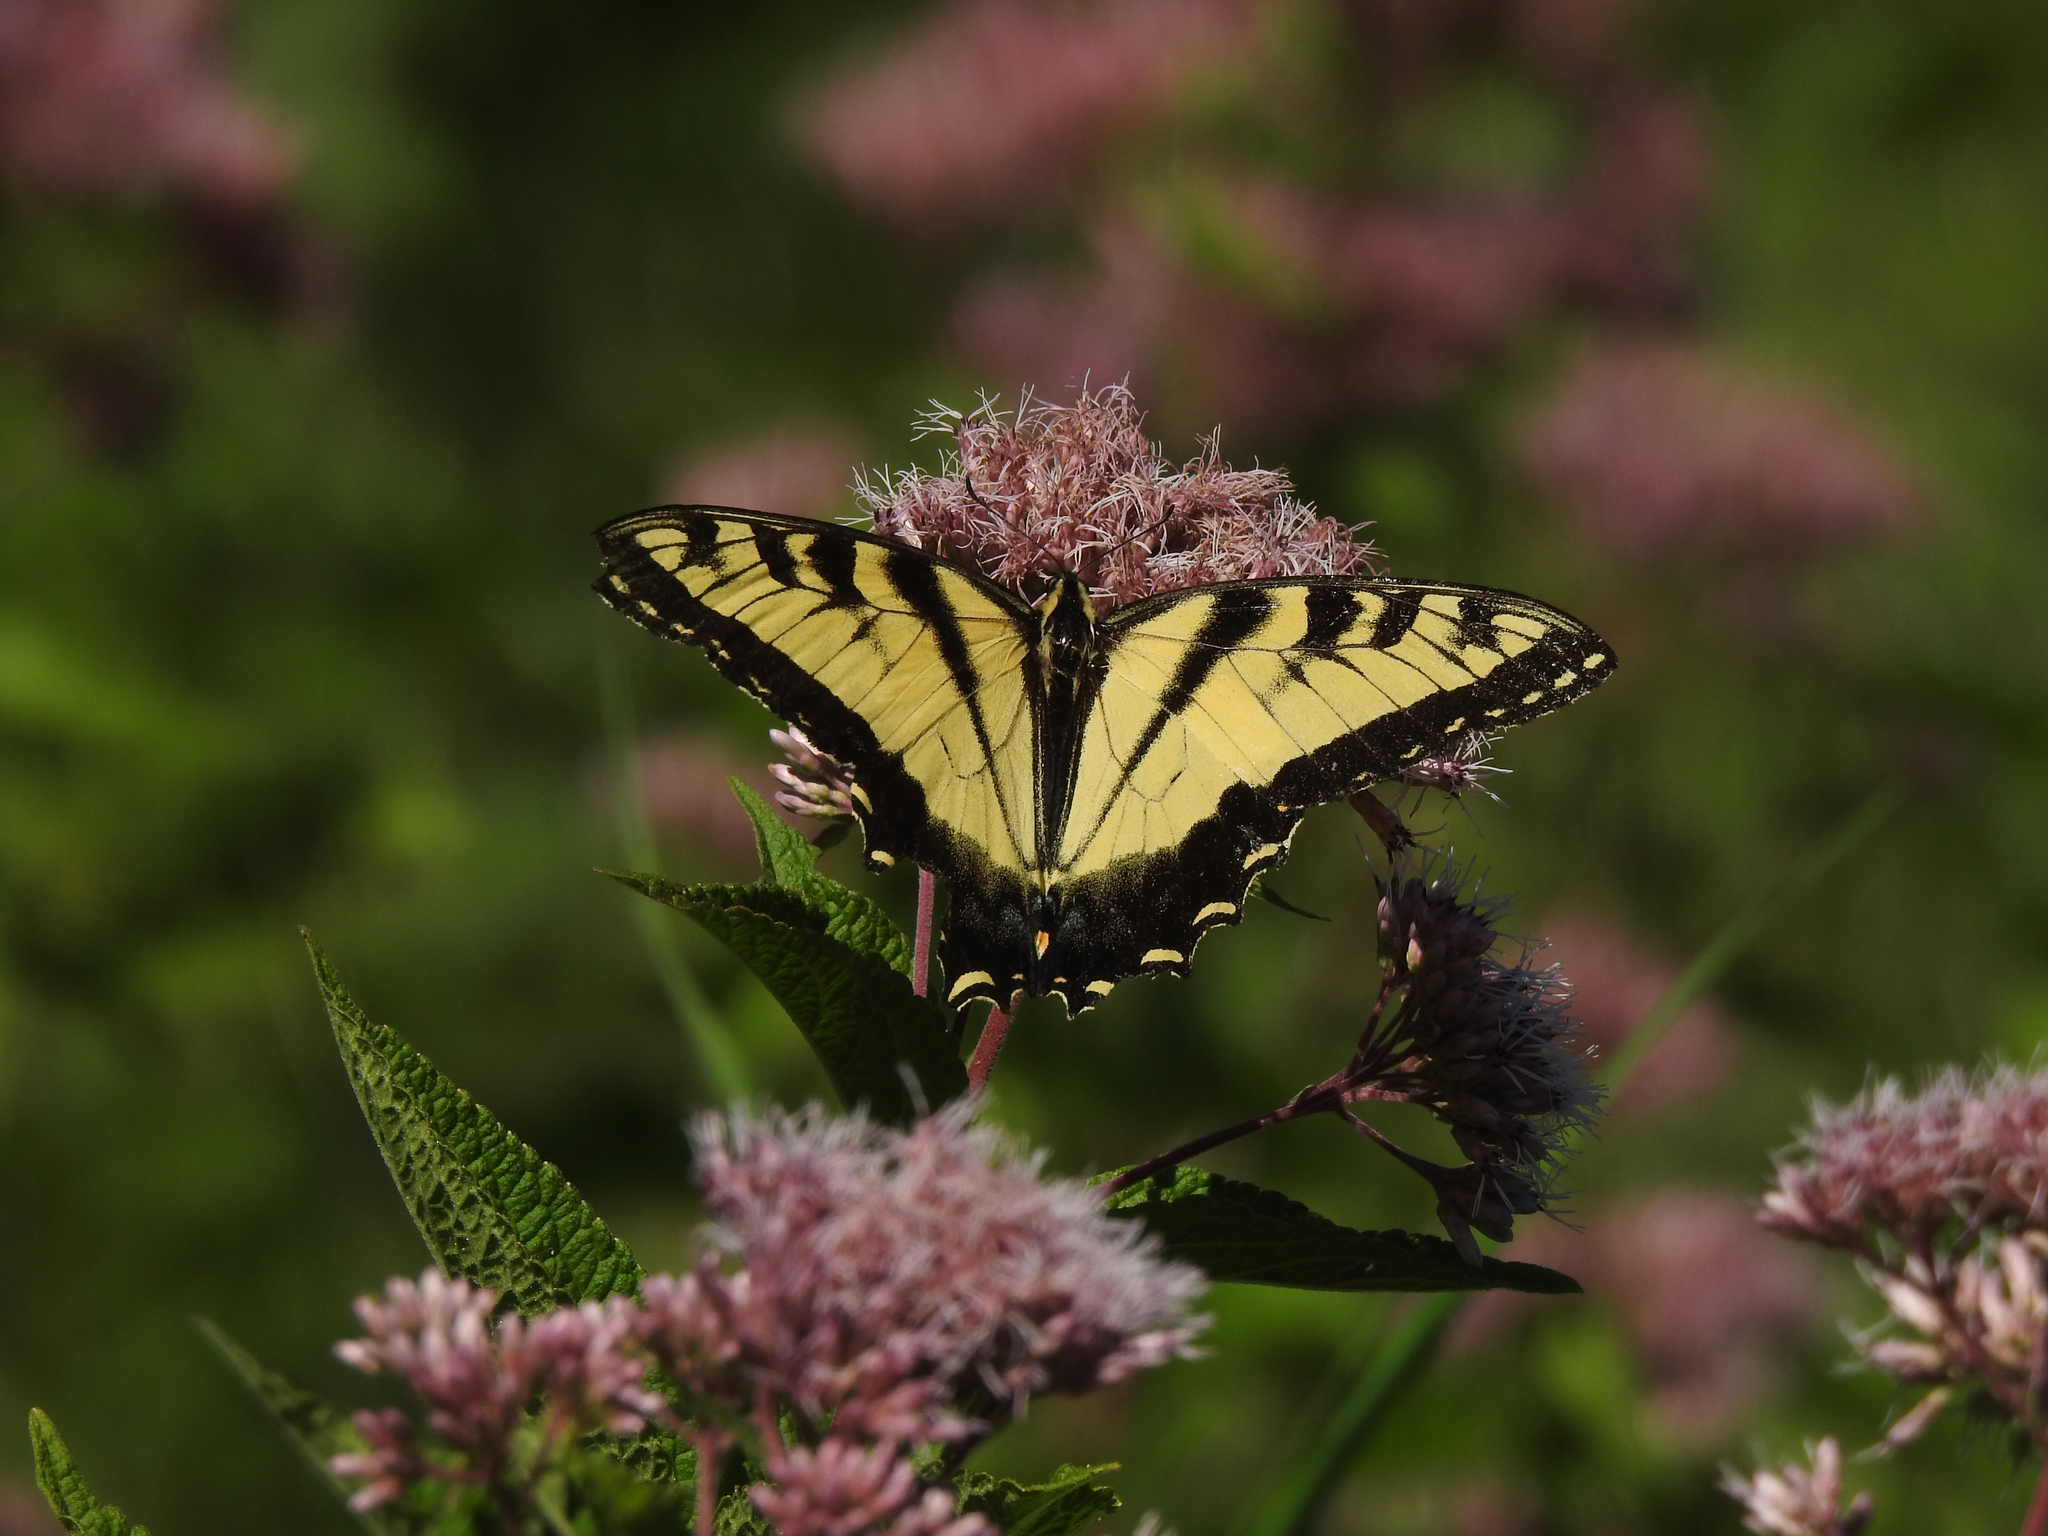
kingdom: Animalia
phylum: Arthropoda
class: Insecta
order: Lepidoptera
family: Papilionidae
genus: Papilio
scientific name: Papilio glaucus
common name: Tiger swallowtail
